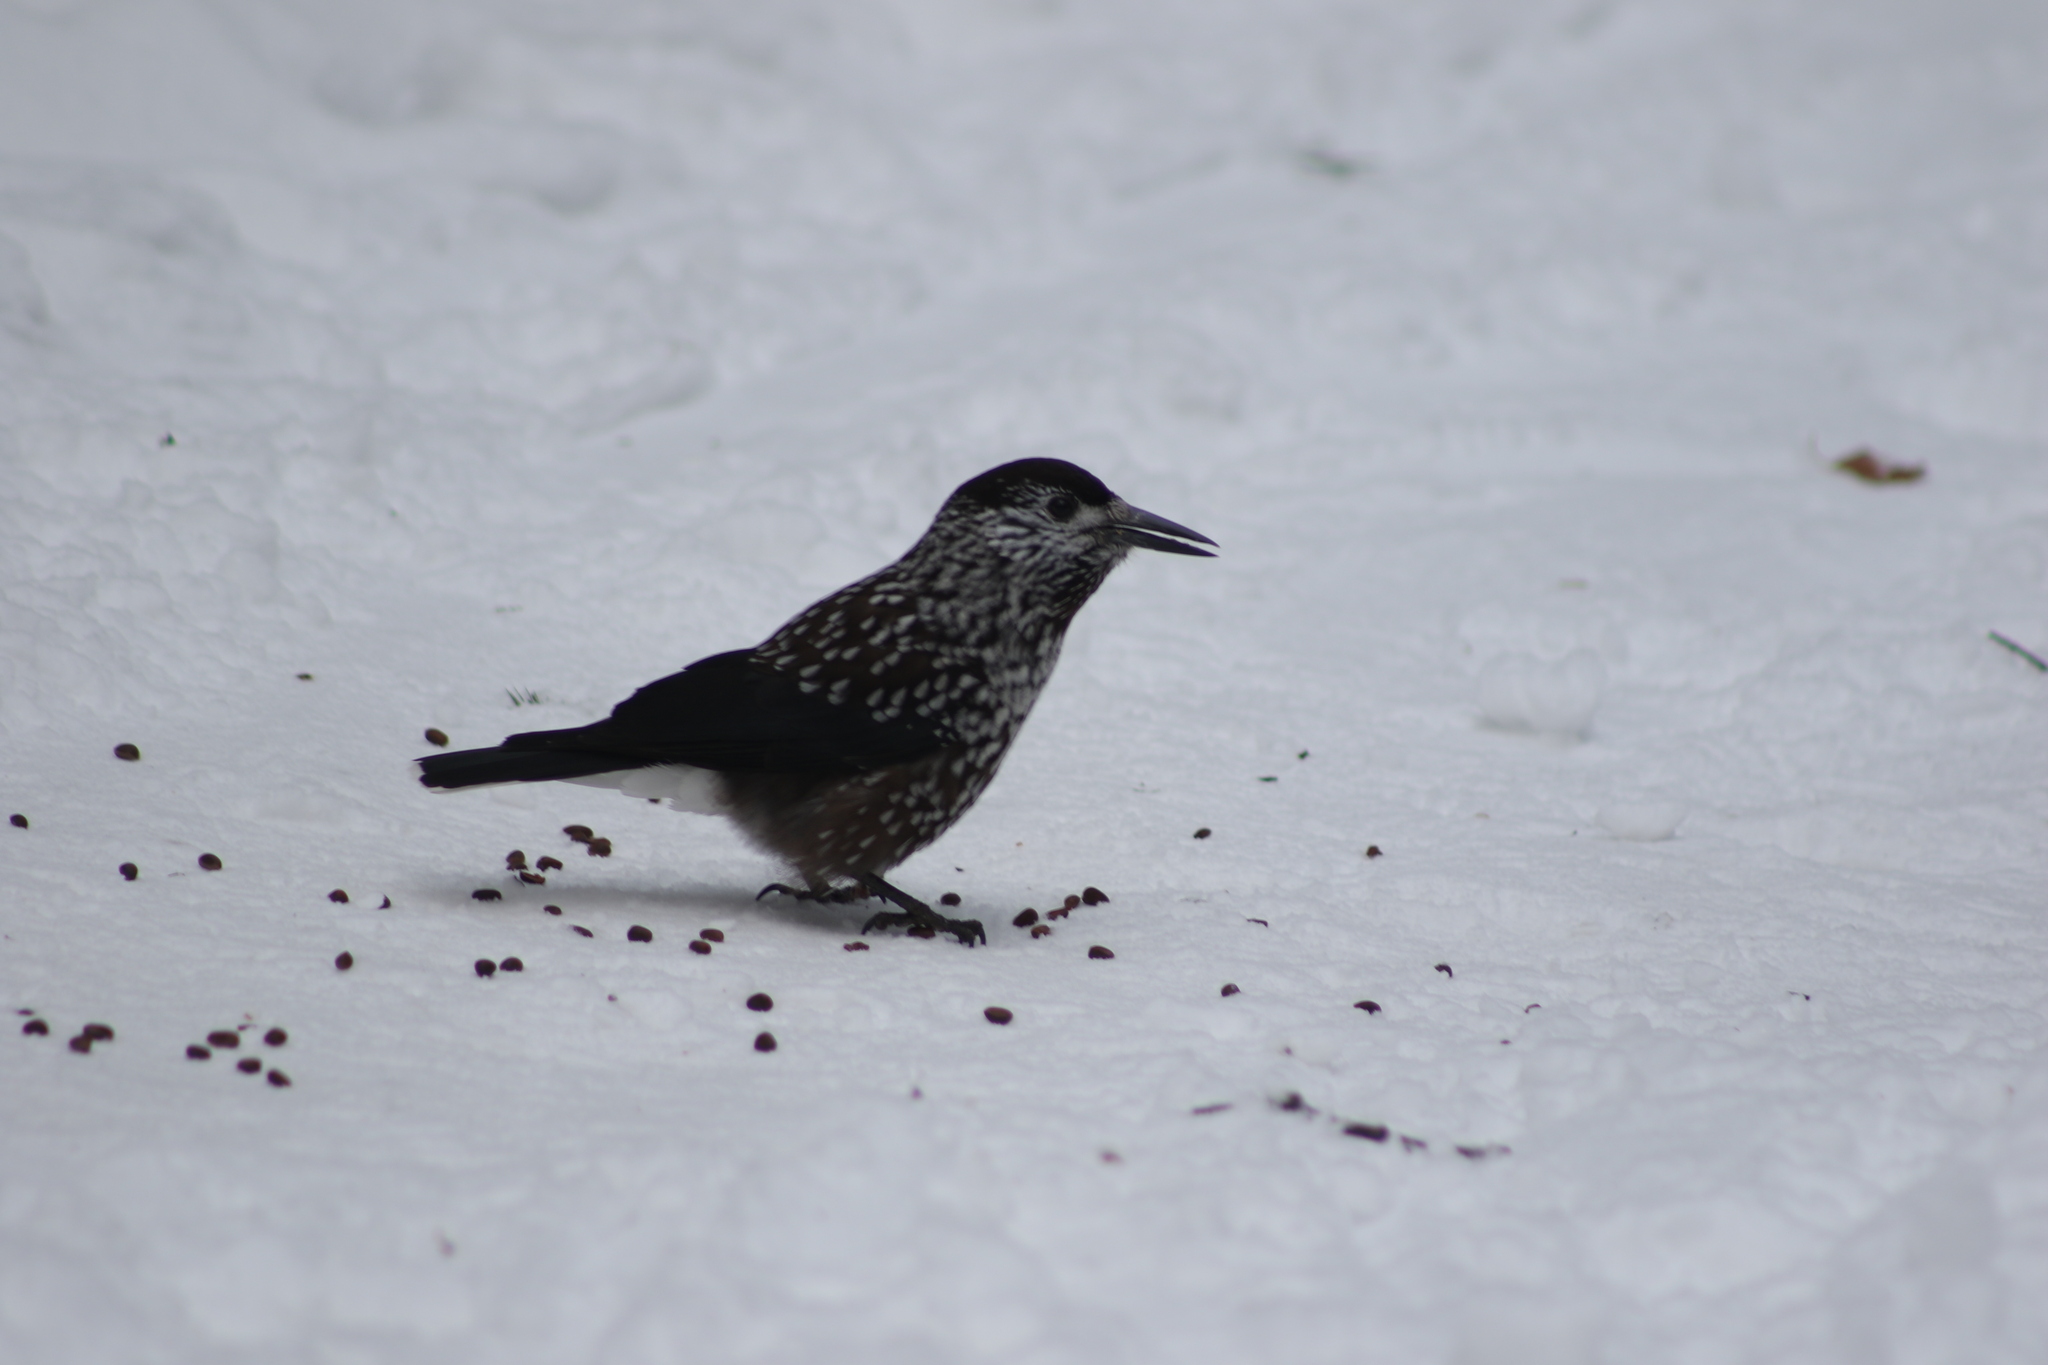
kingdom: Animalia
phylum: Chordata
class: Aves
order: Passeriformes
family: Corvidae
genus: Nucifraga
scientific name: Nucifraga caryocatactes
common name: Spotted nutcracker
